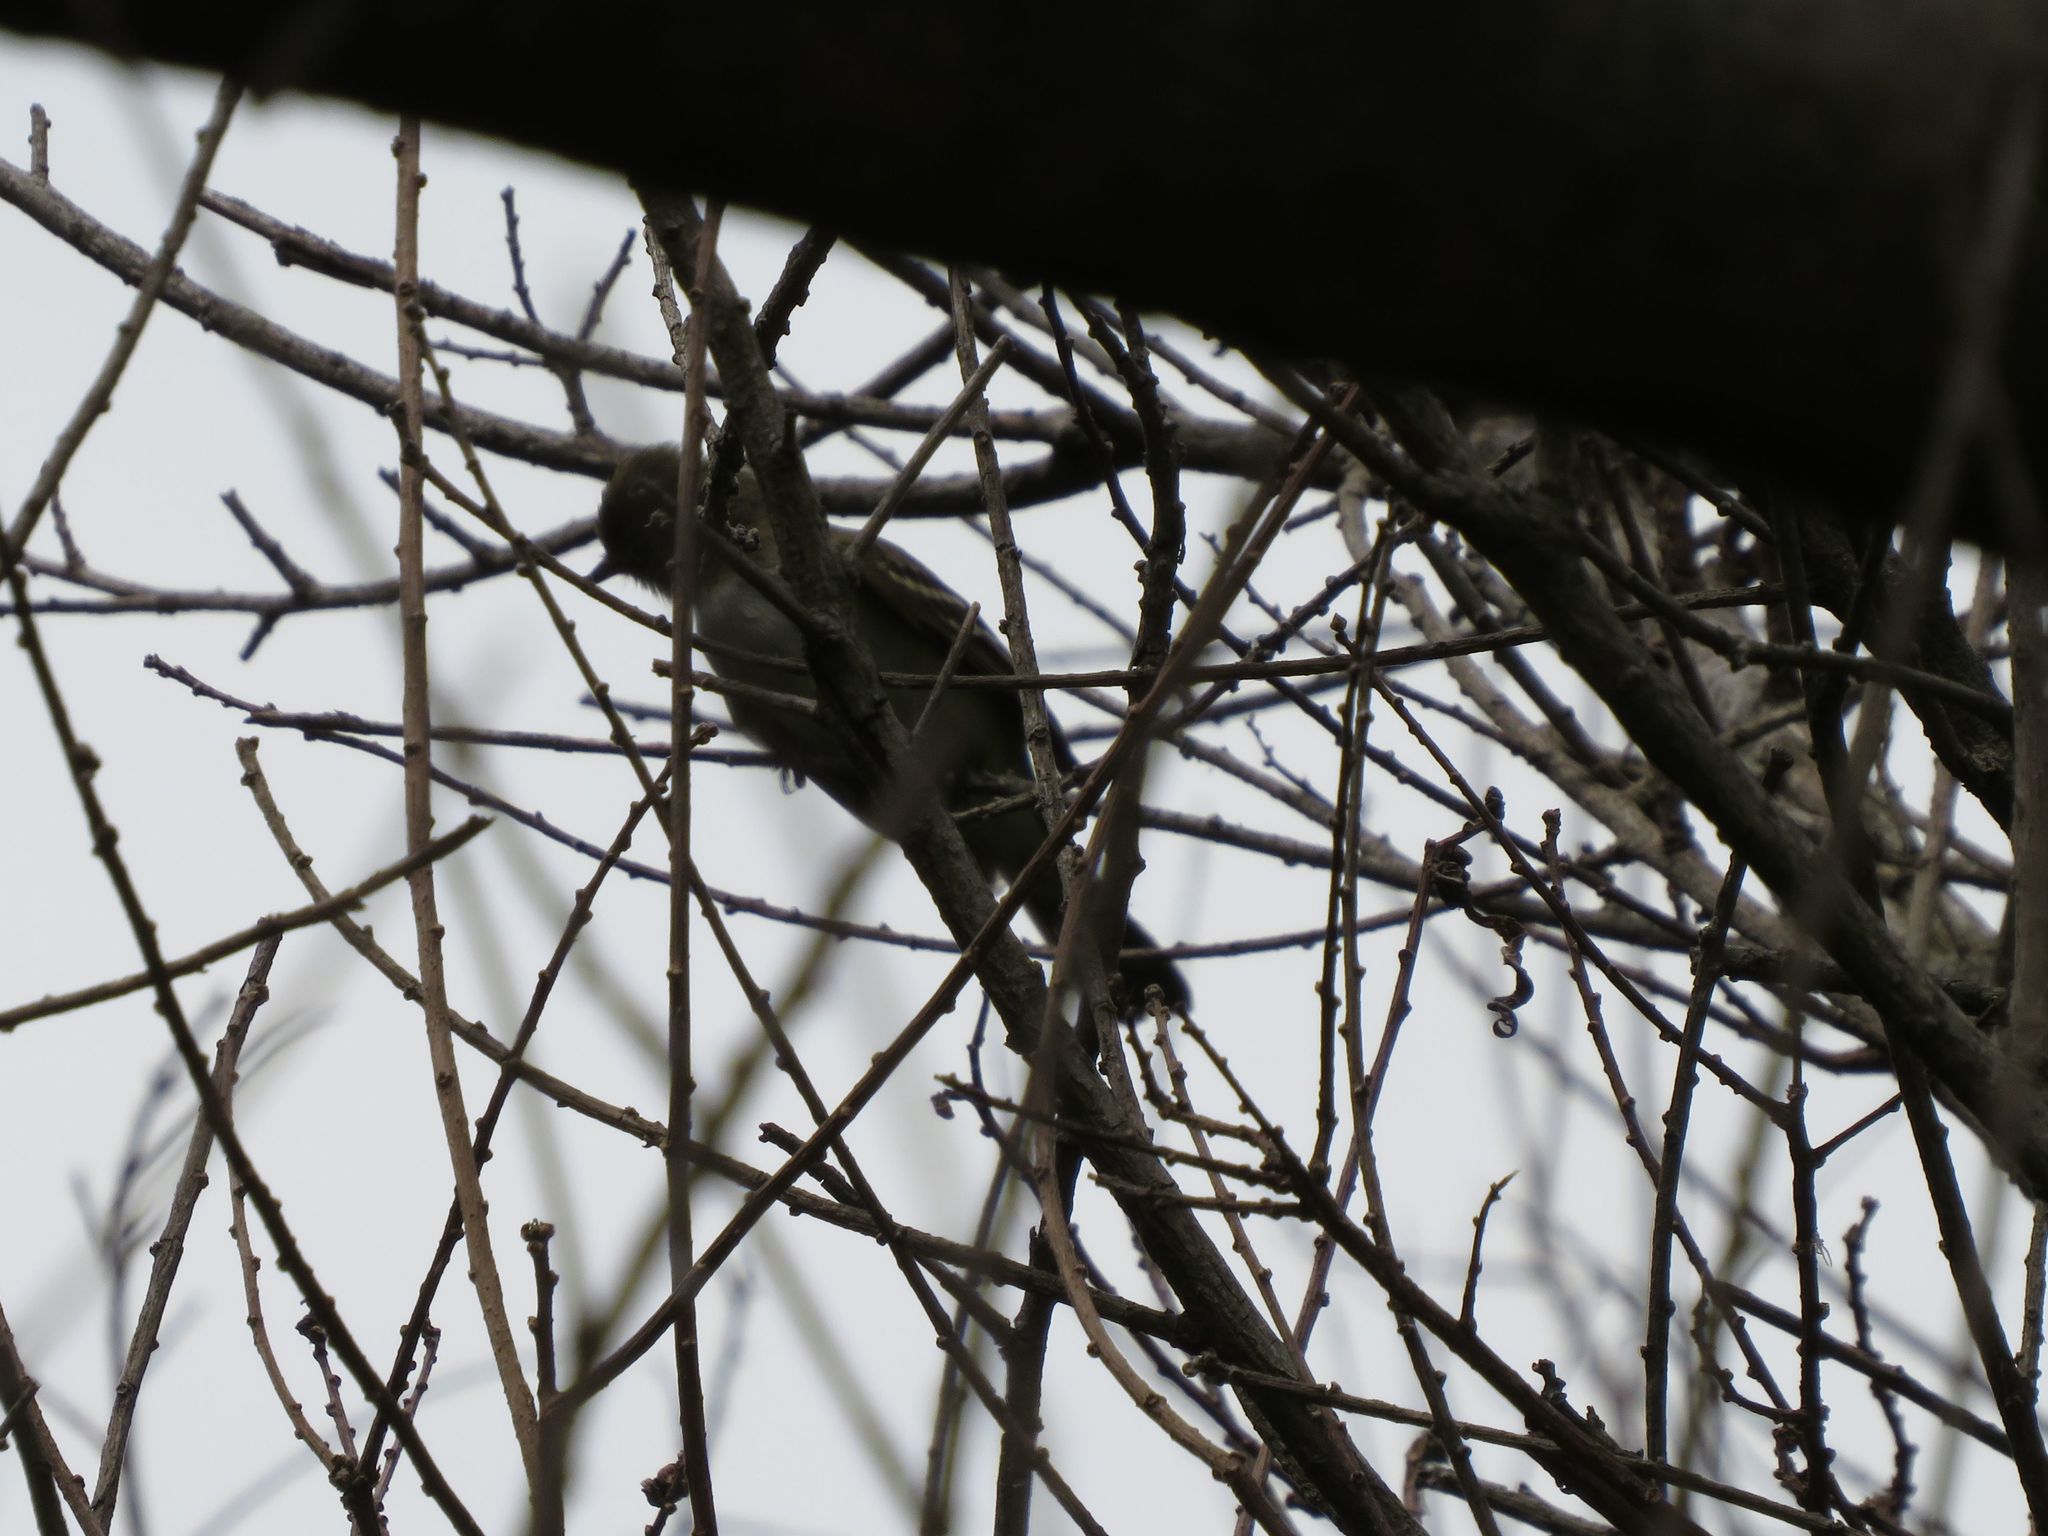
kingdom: Animalia
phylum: Chordata
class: Aves
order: Passeriformes
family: Tyrannidae
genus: Elaenia
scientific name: Elaenia parvirostris
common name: Small-billed elaenia
